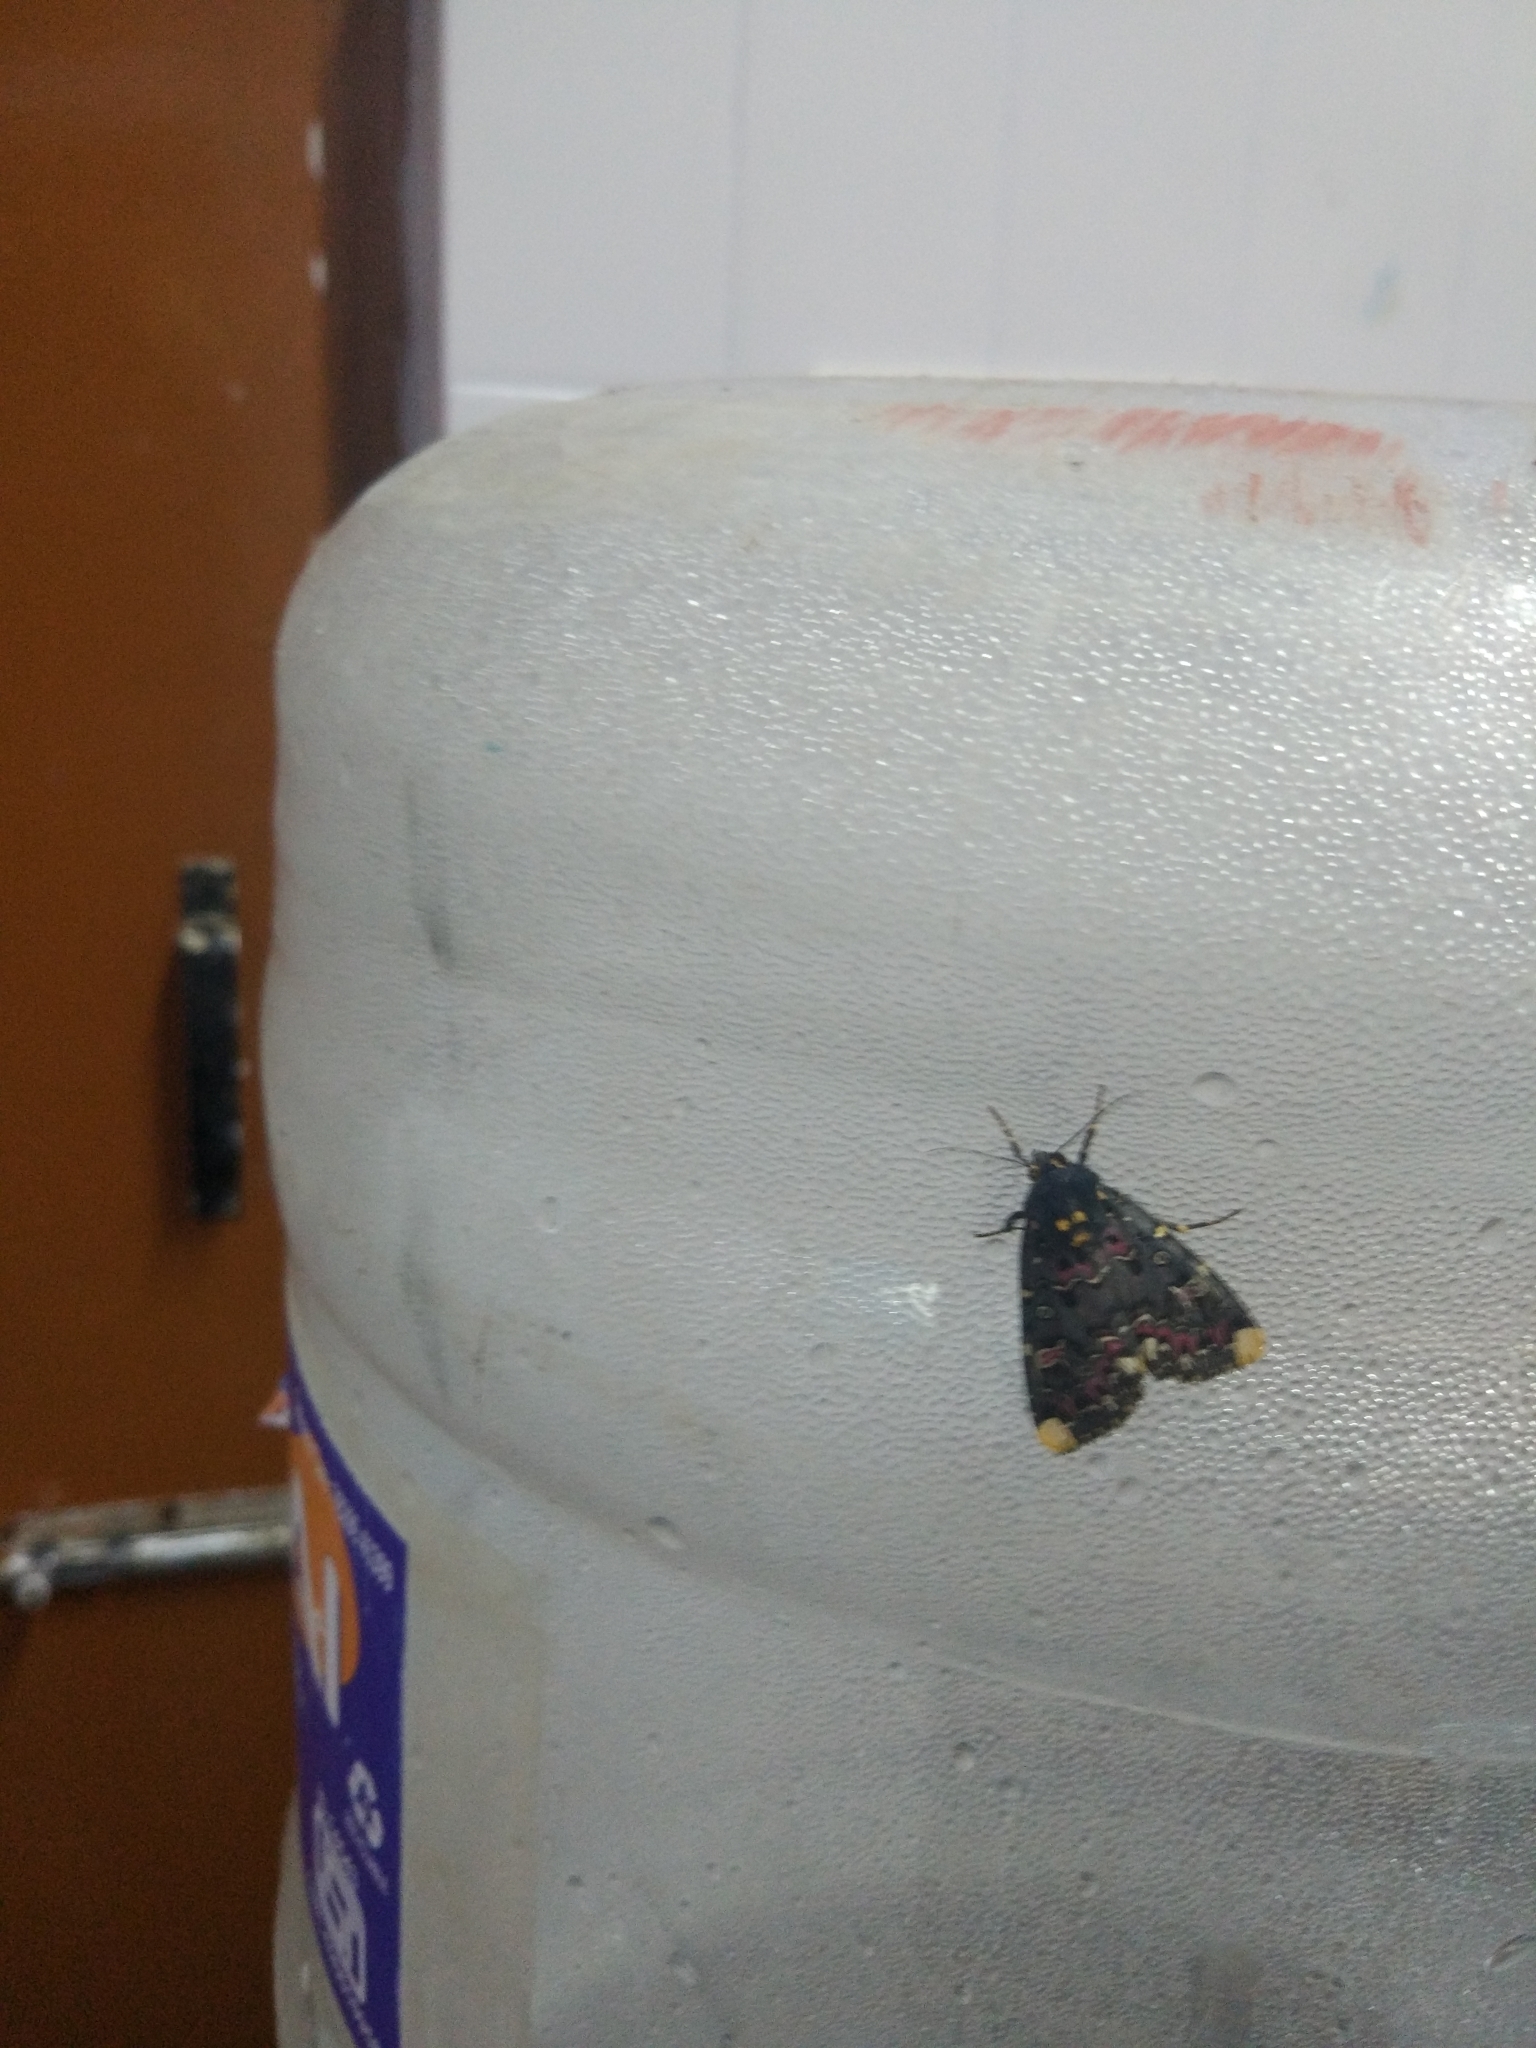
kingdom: Animalia
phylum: Arthropoda
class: Insecta
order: Lepidoptera
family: Noctuidae
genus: Polytela
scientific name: Polytela gloriosae
